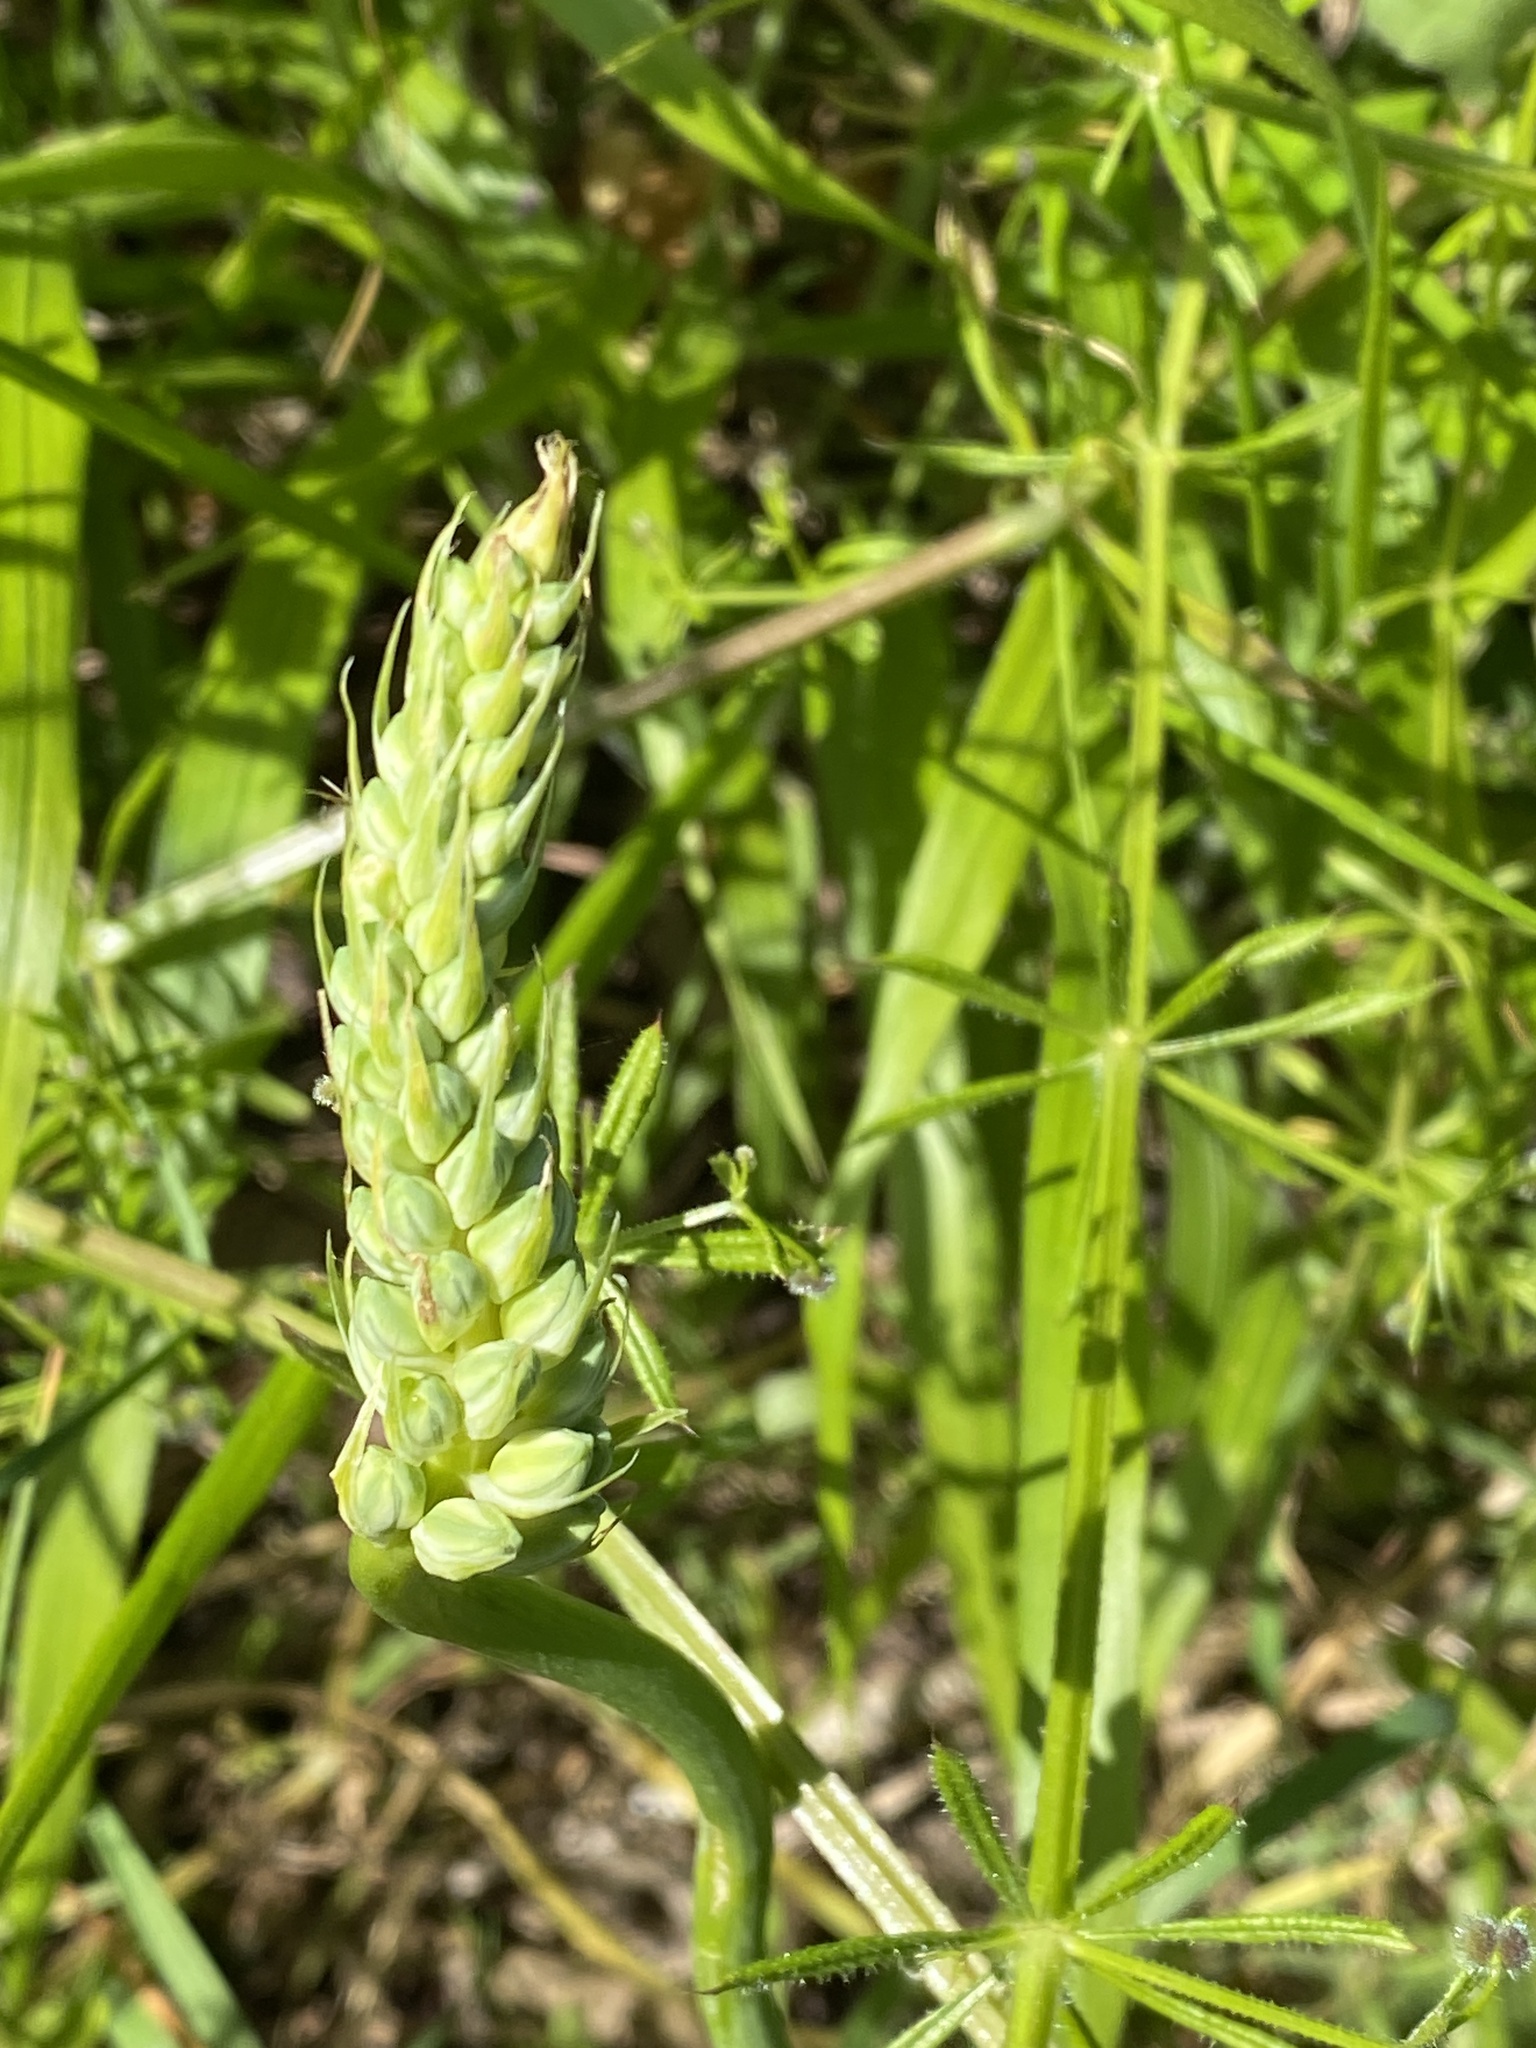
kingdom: Plantae
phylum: Tracheophyta
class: Liliopsida
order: Asparagales
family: Asparagaceae
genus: Ornithogalum
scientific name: Ornithogalum pyrenaicum
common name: Spiked star-of-bethlehem
